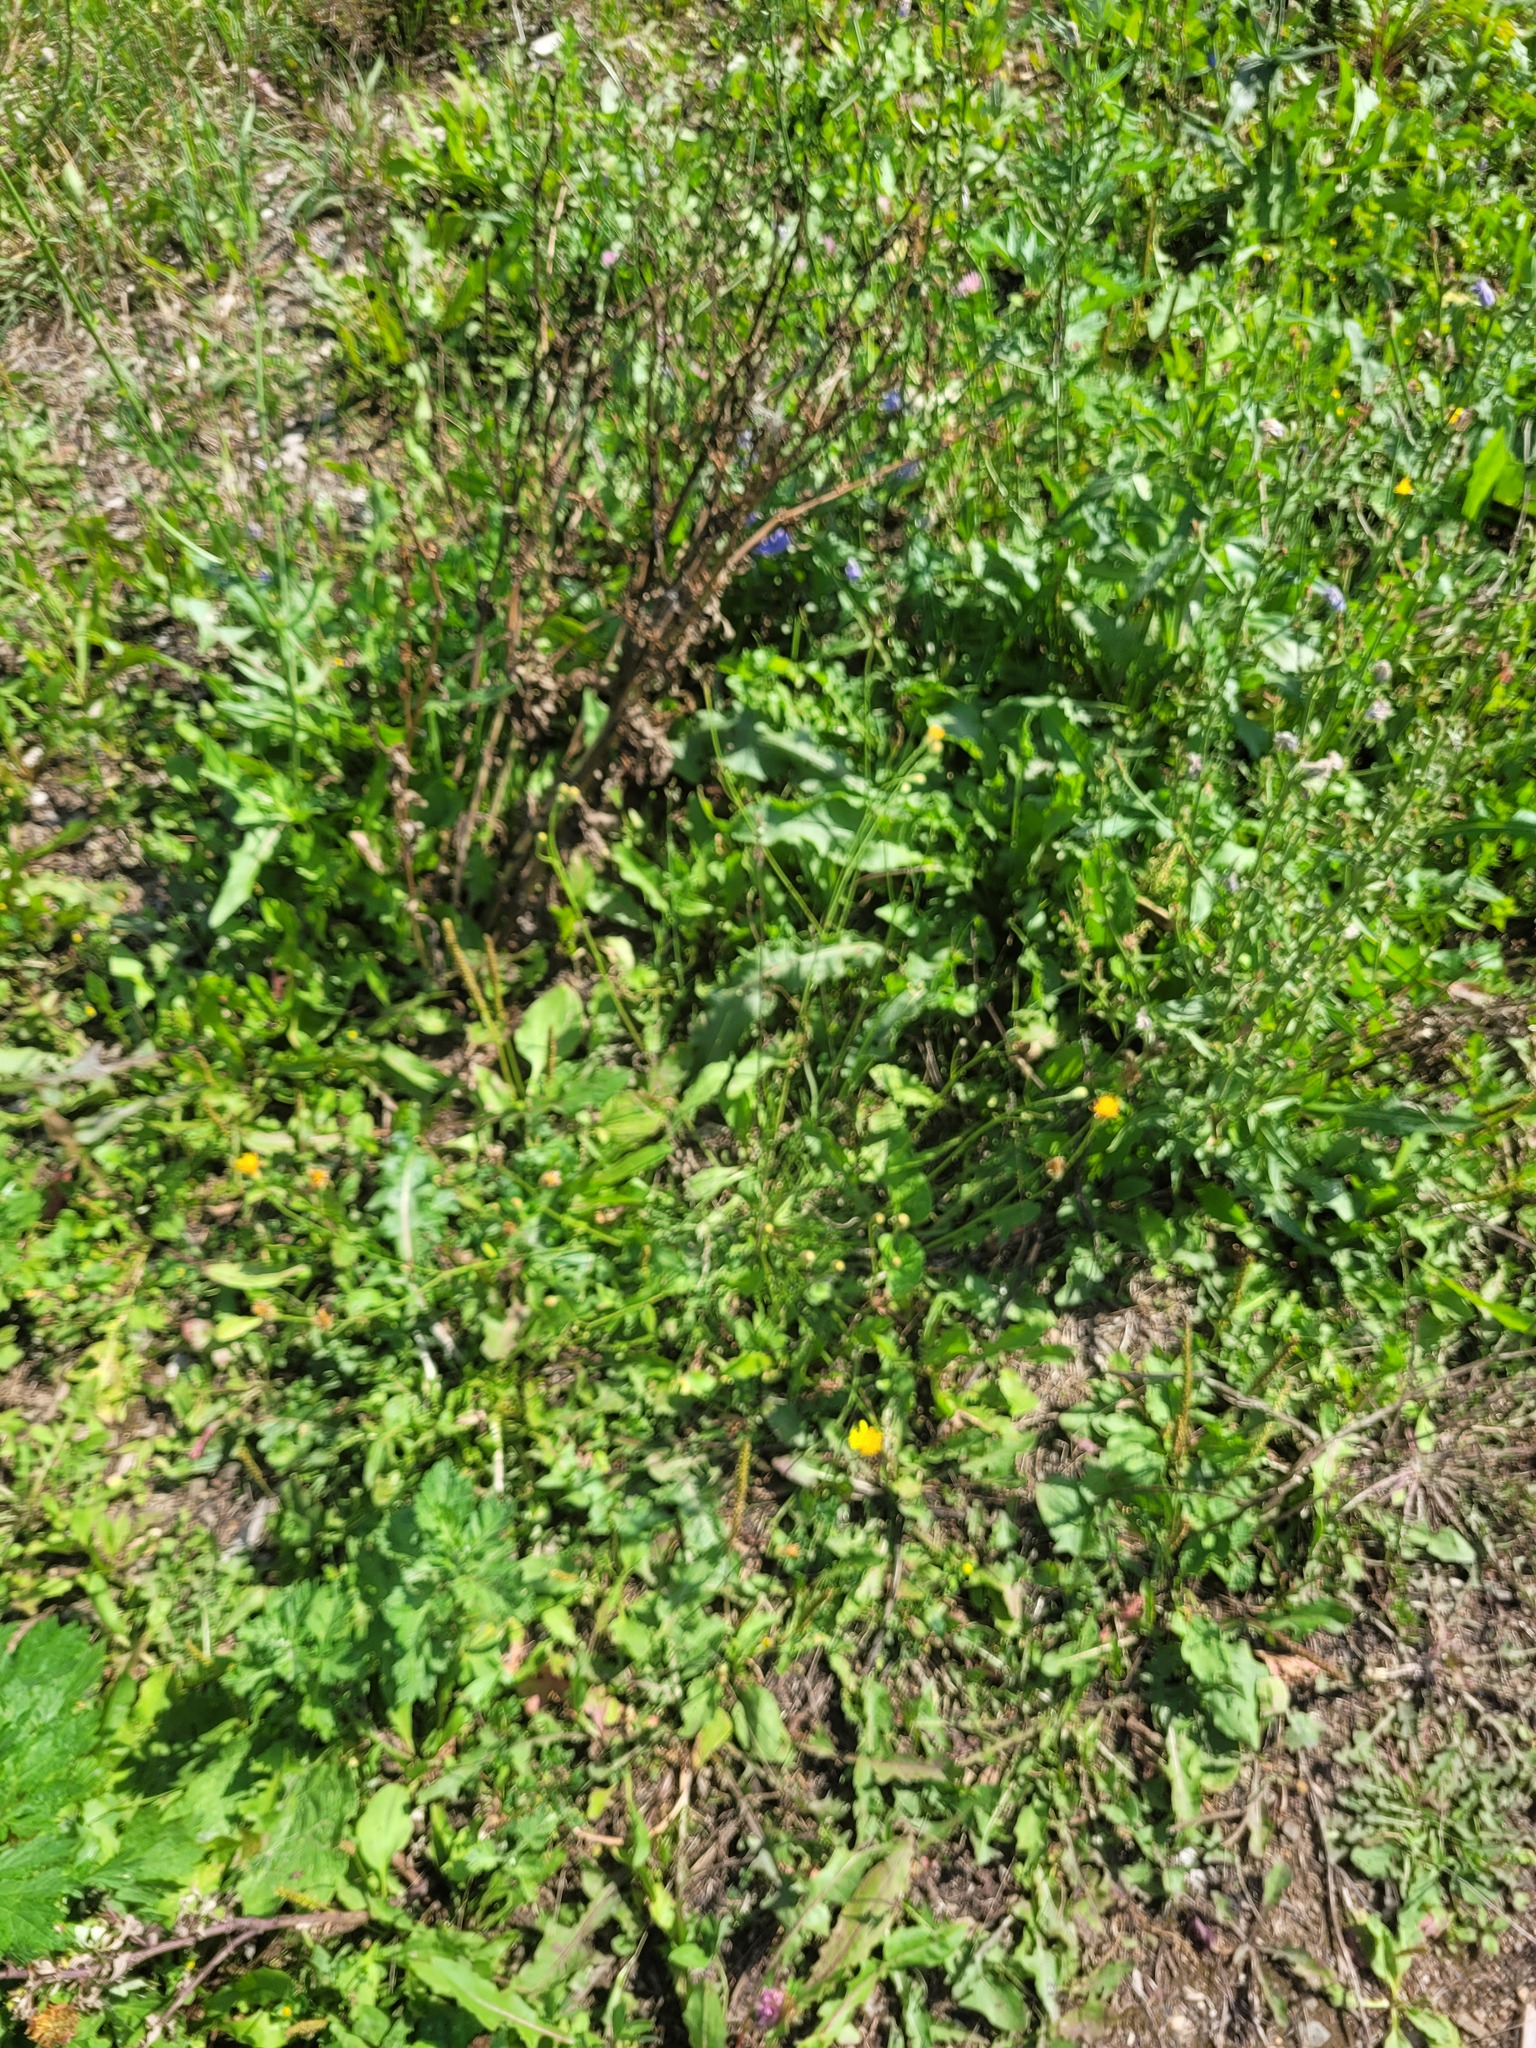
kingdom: Plantae
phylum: Tracheophyta
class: Magnoliopsida
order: Asterales
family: Asteraceae
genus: Scorzoneroides
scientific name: Scorzoneroides autumnalis
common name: Autumn hawkbit
